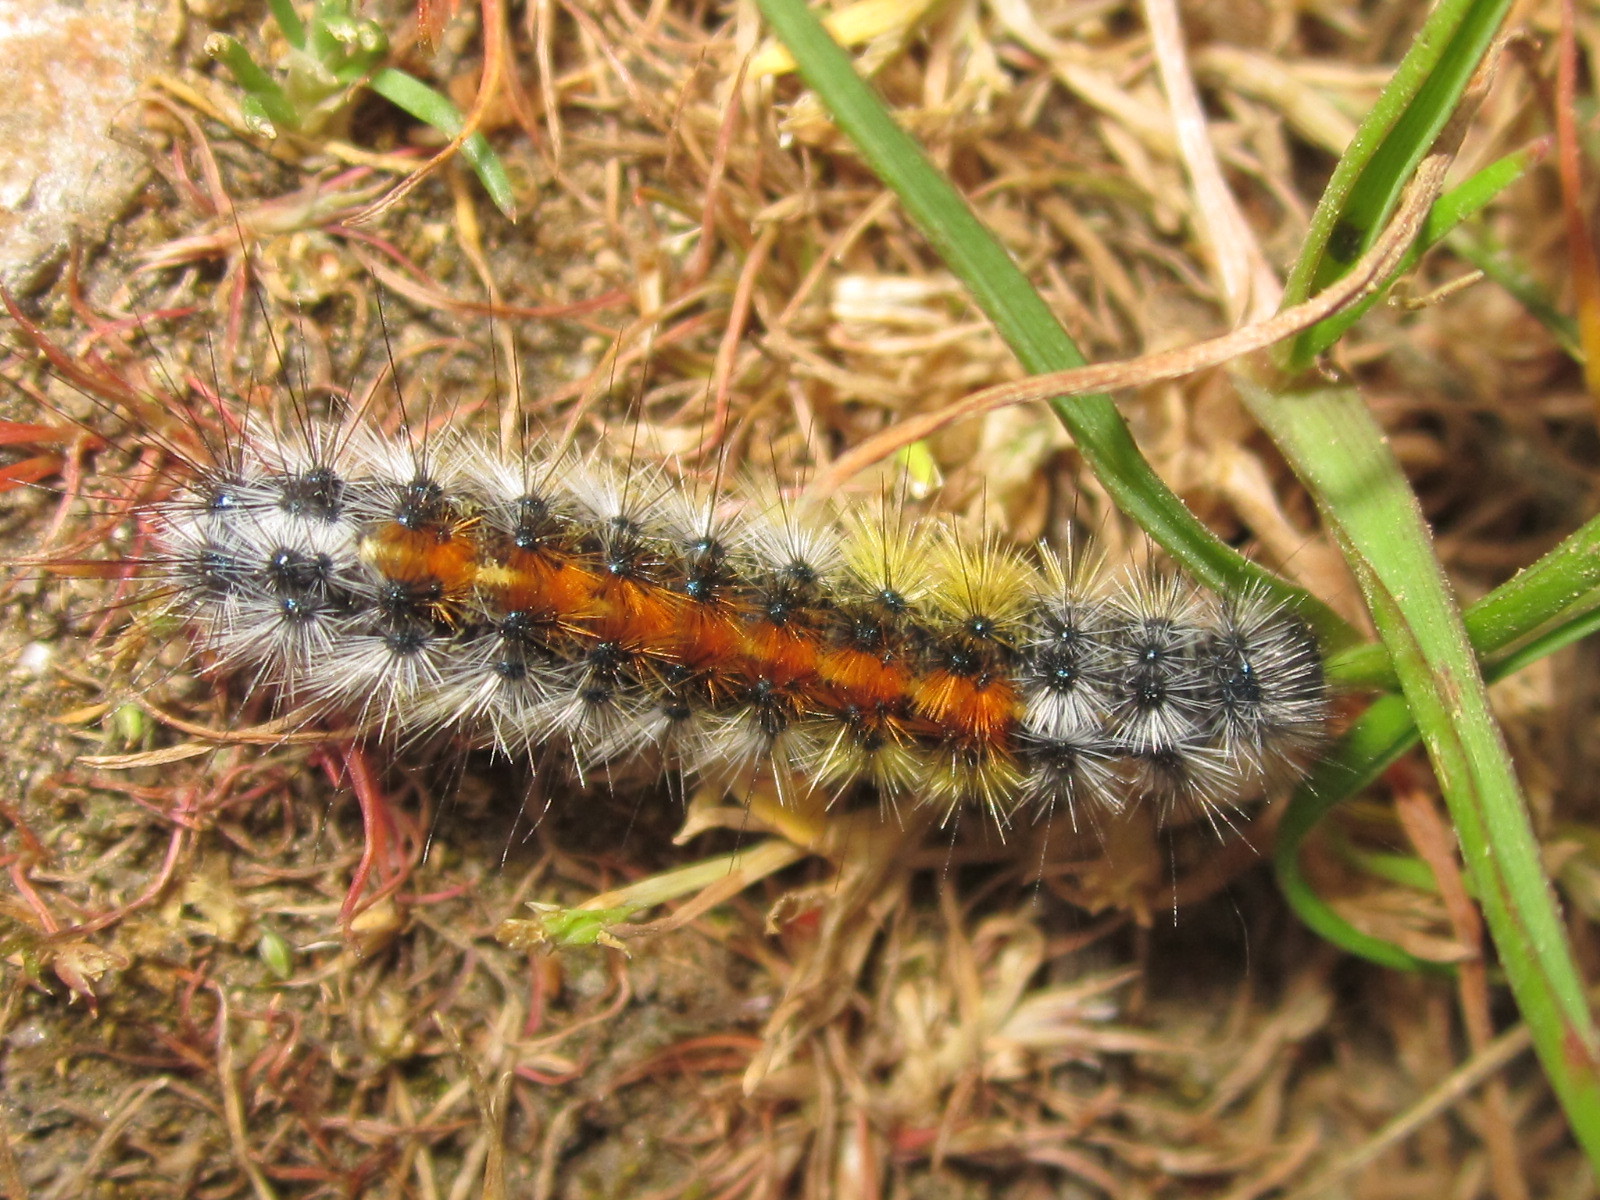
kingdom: Animalia
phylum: Arthropoda
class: Insecta
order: Lepidoptera
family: Erebidae
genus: Chilesia
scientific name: Chilesia
